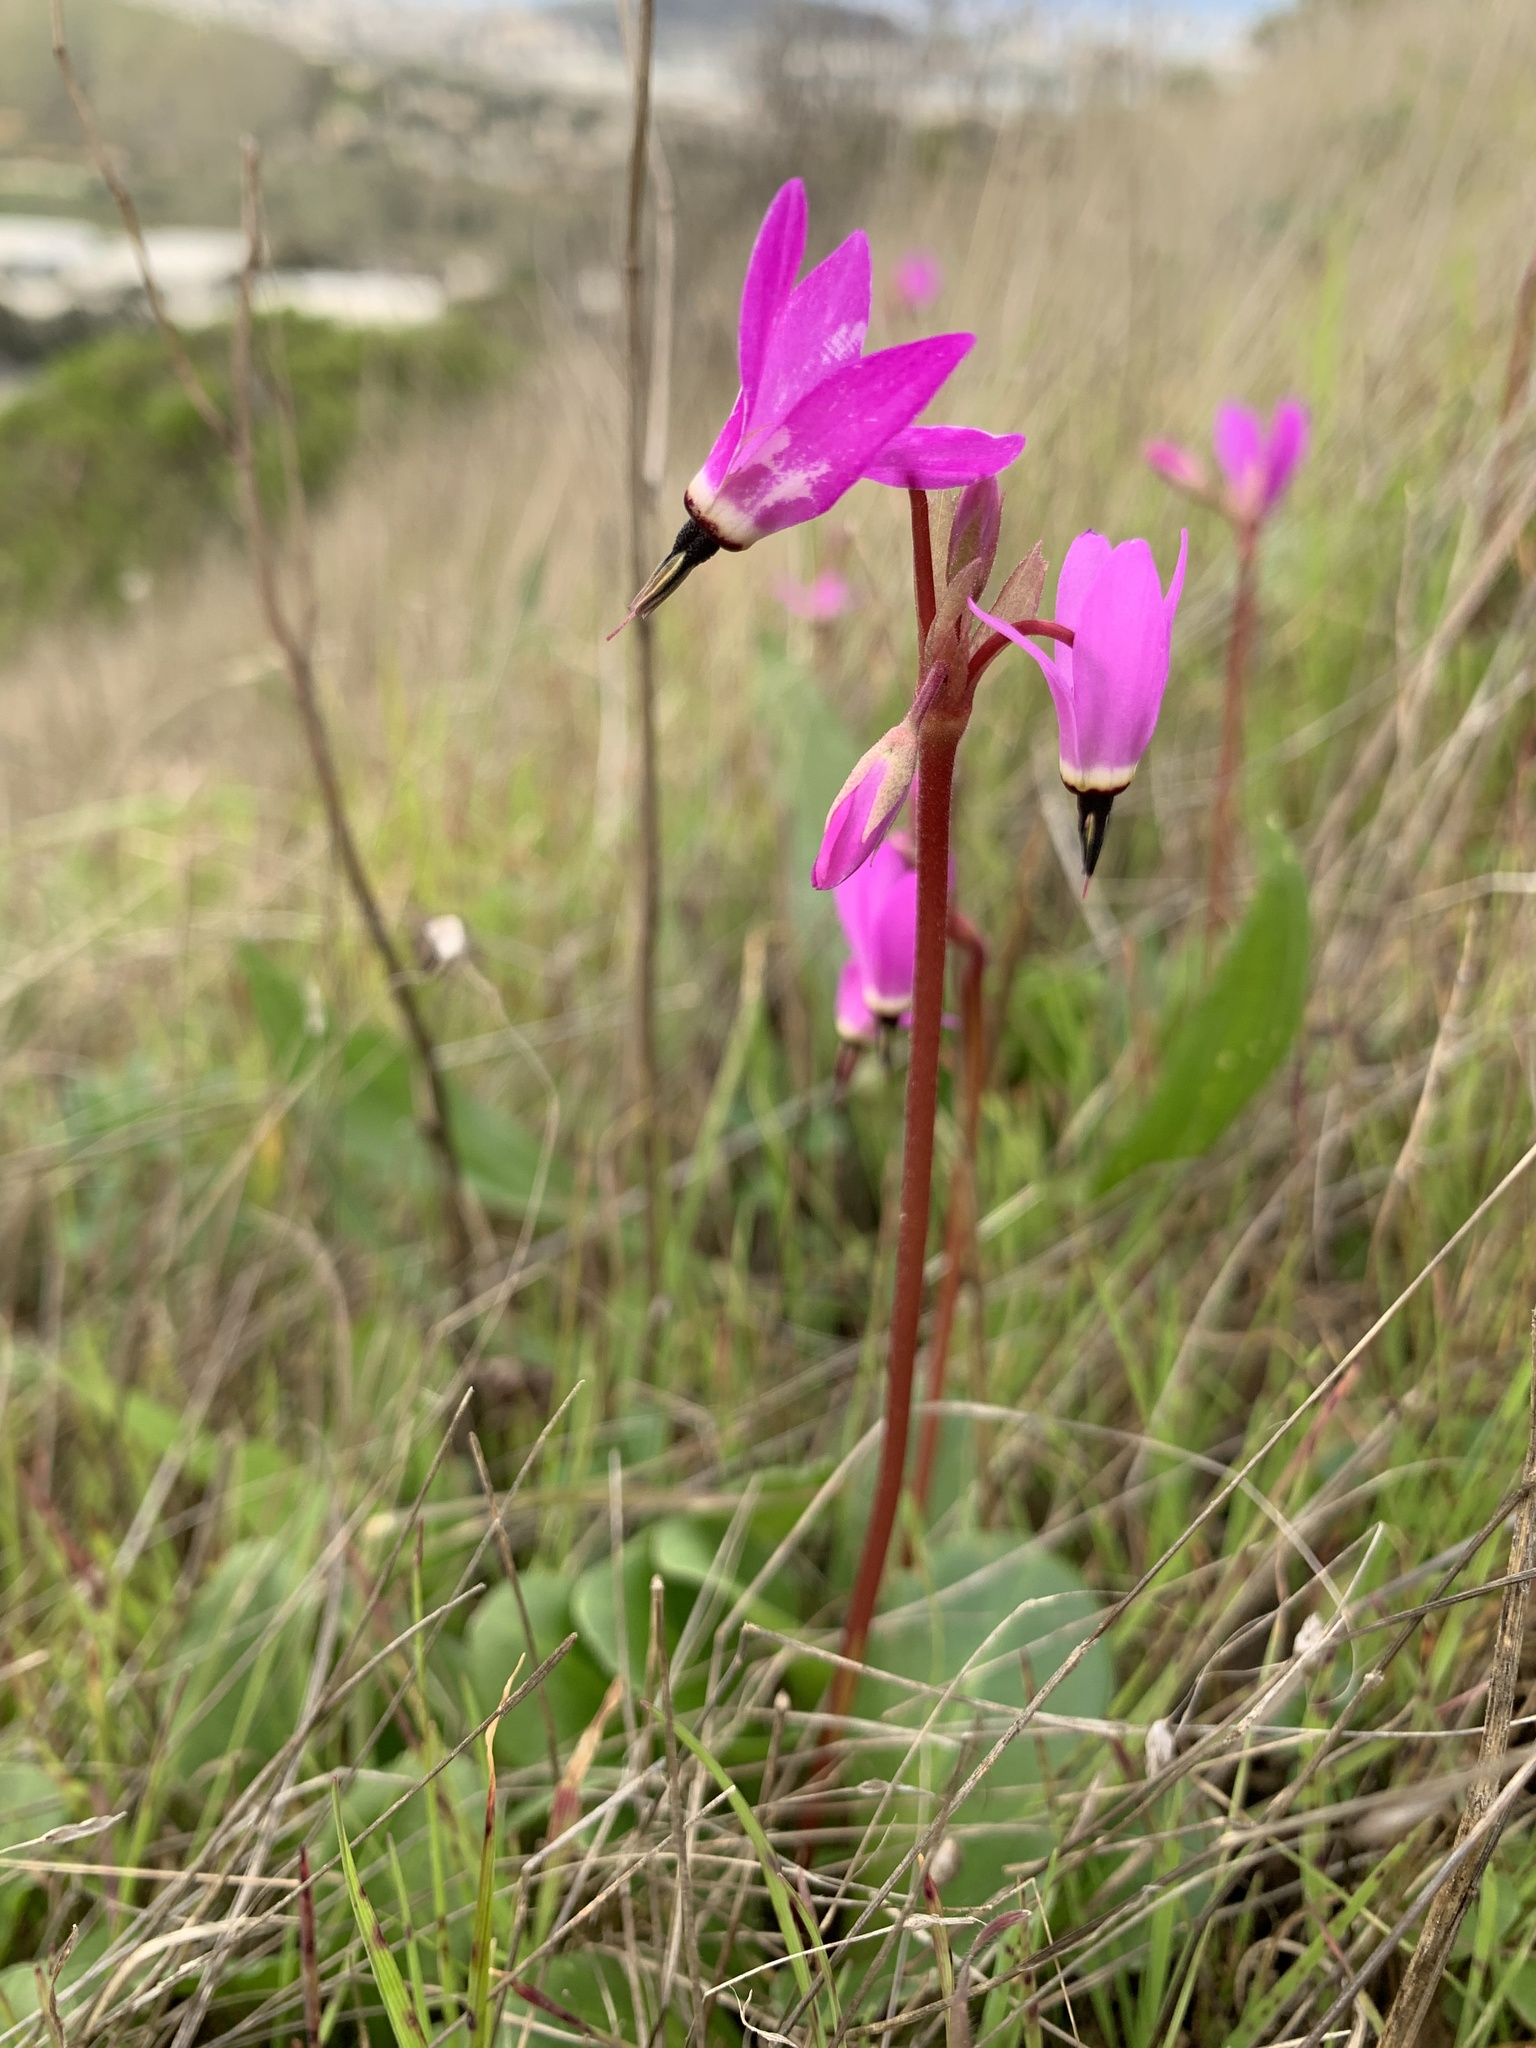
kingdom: Plantae
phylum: Tracheophyta
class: Magnoliopsida
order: Ericales
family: Primulaceae
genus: Dodecatheon
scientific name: Dodecatheon hendersonii
